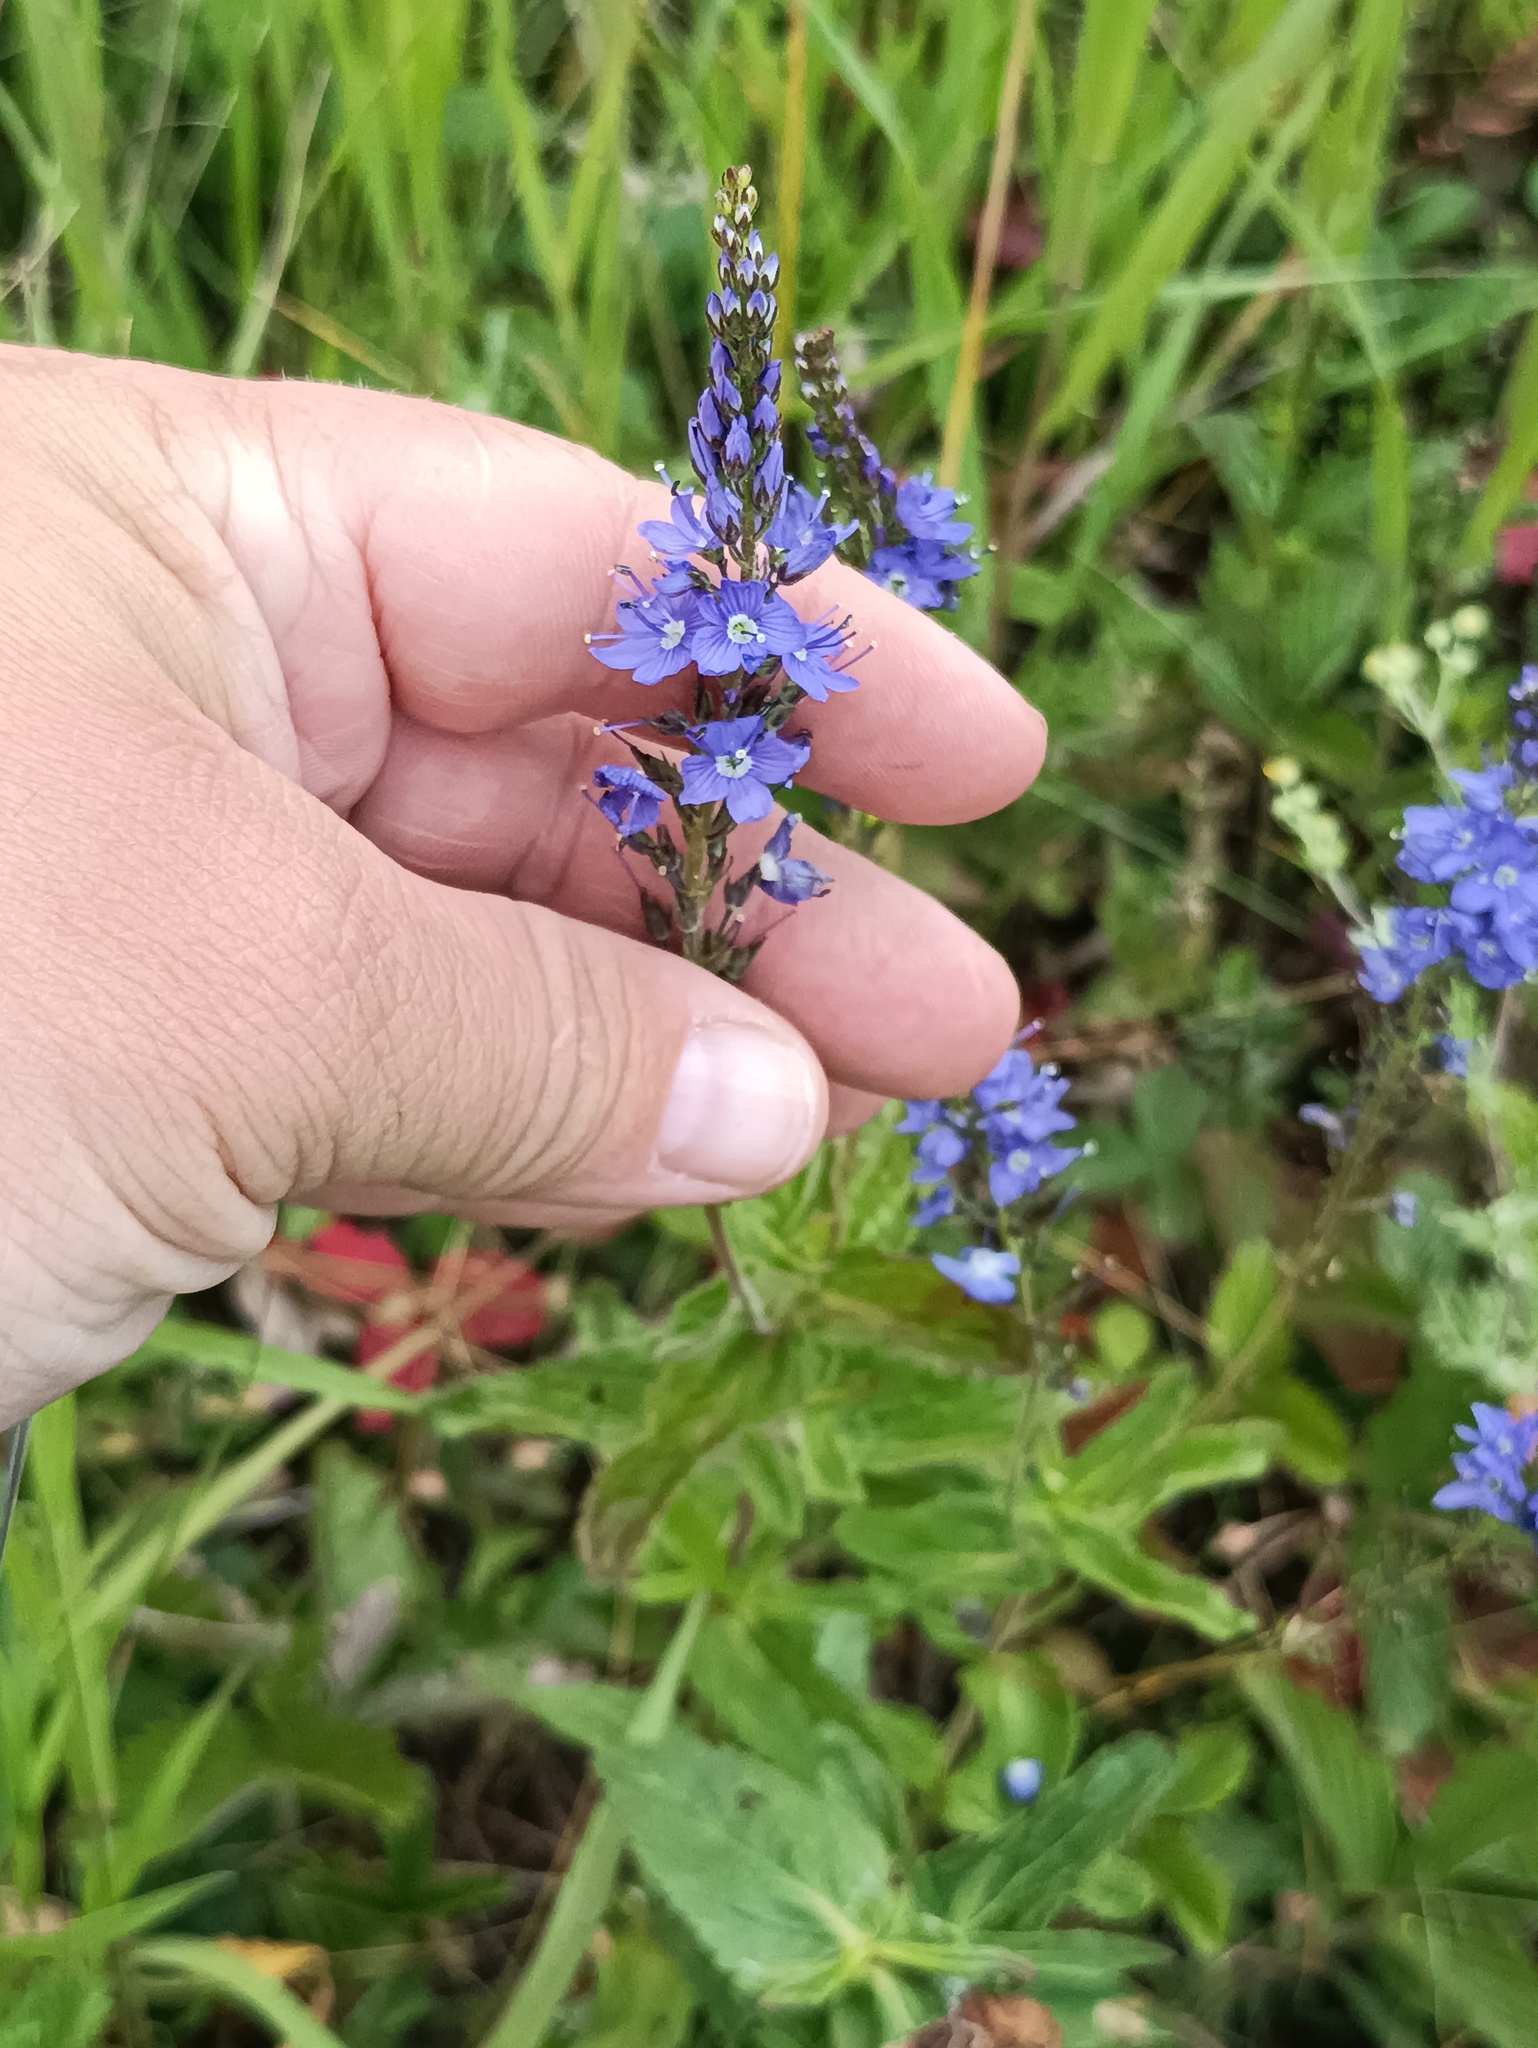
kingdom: Plantae
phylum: Tracheophyta
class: Magnoliopsida
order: Lamiales
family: Plantaginaceae
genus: Veronica
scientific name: Veronica teucrium
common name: Large speedwell
